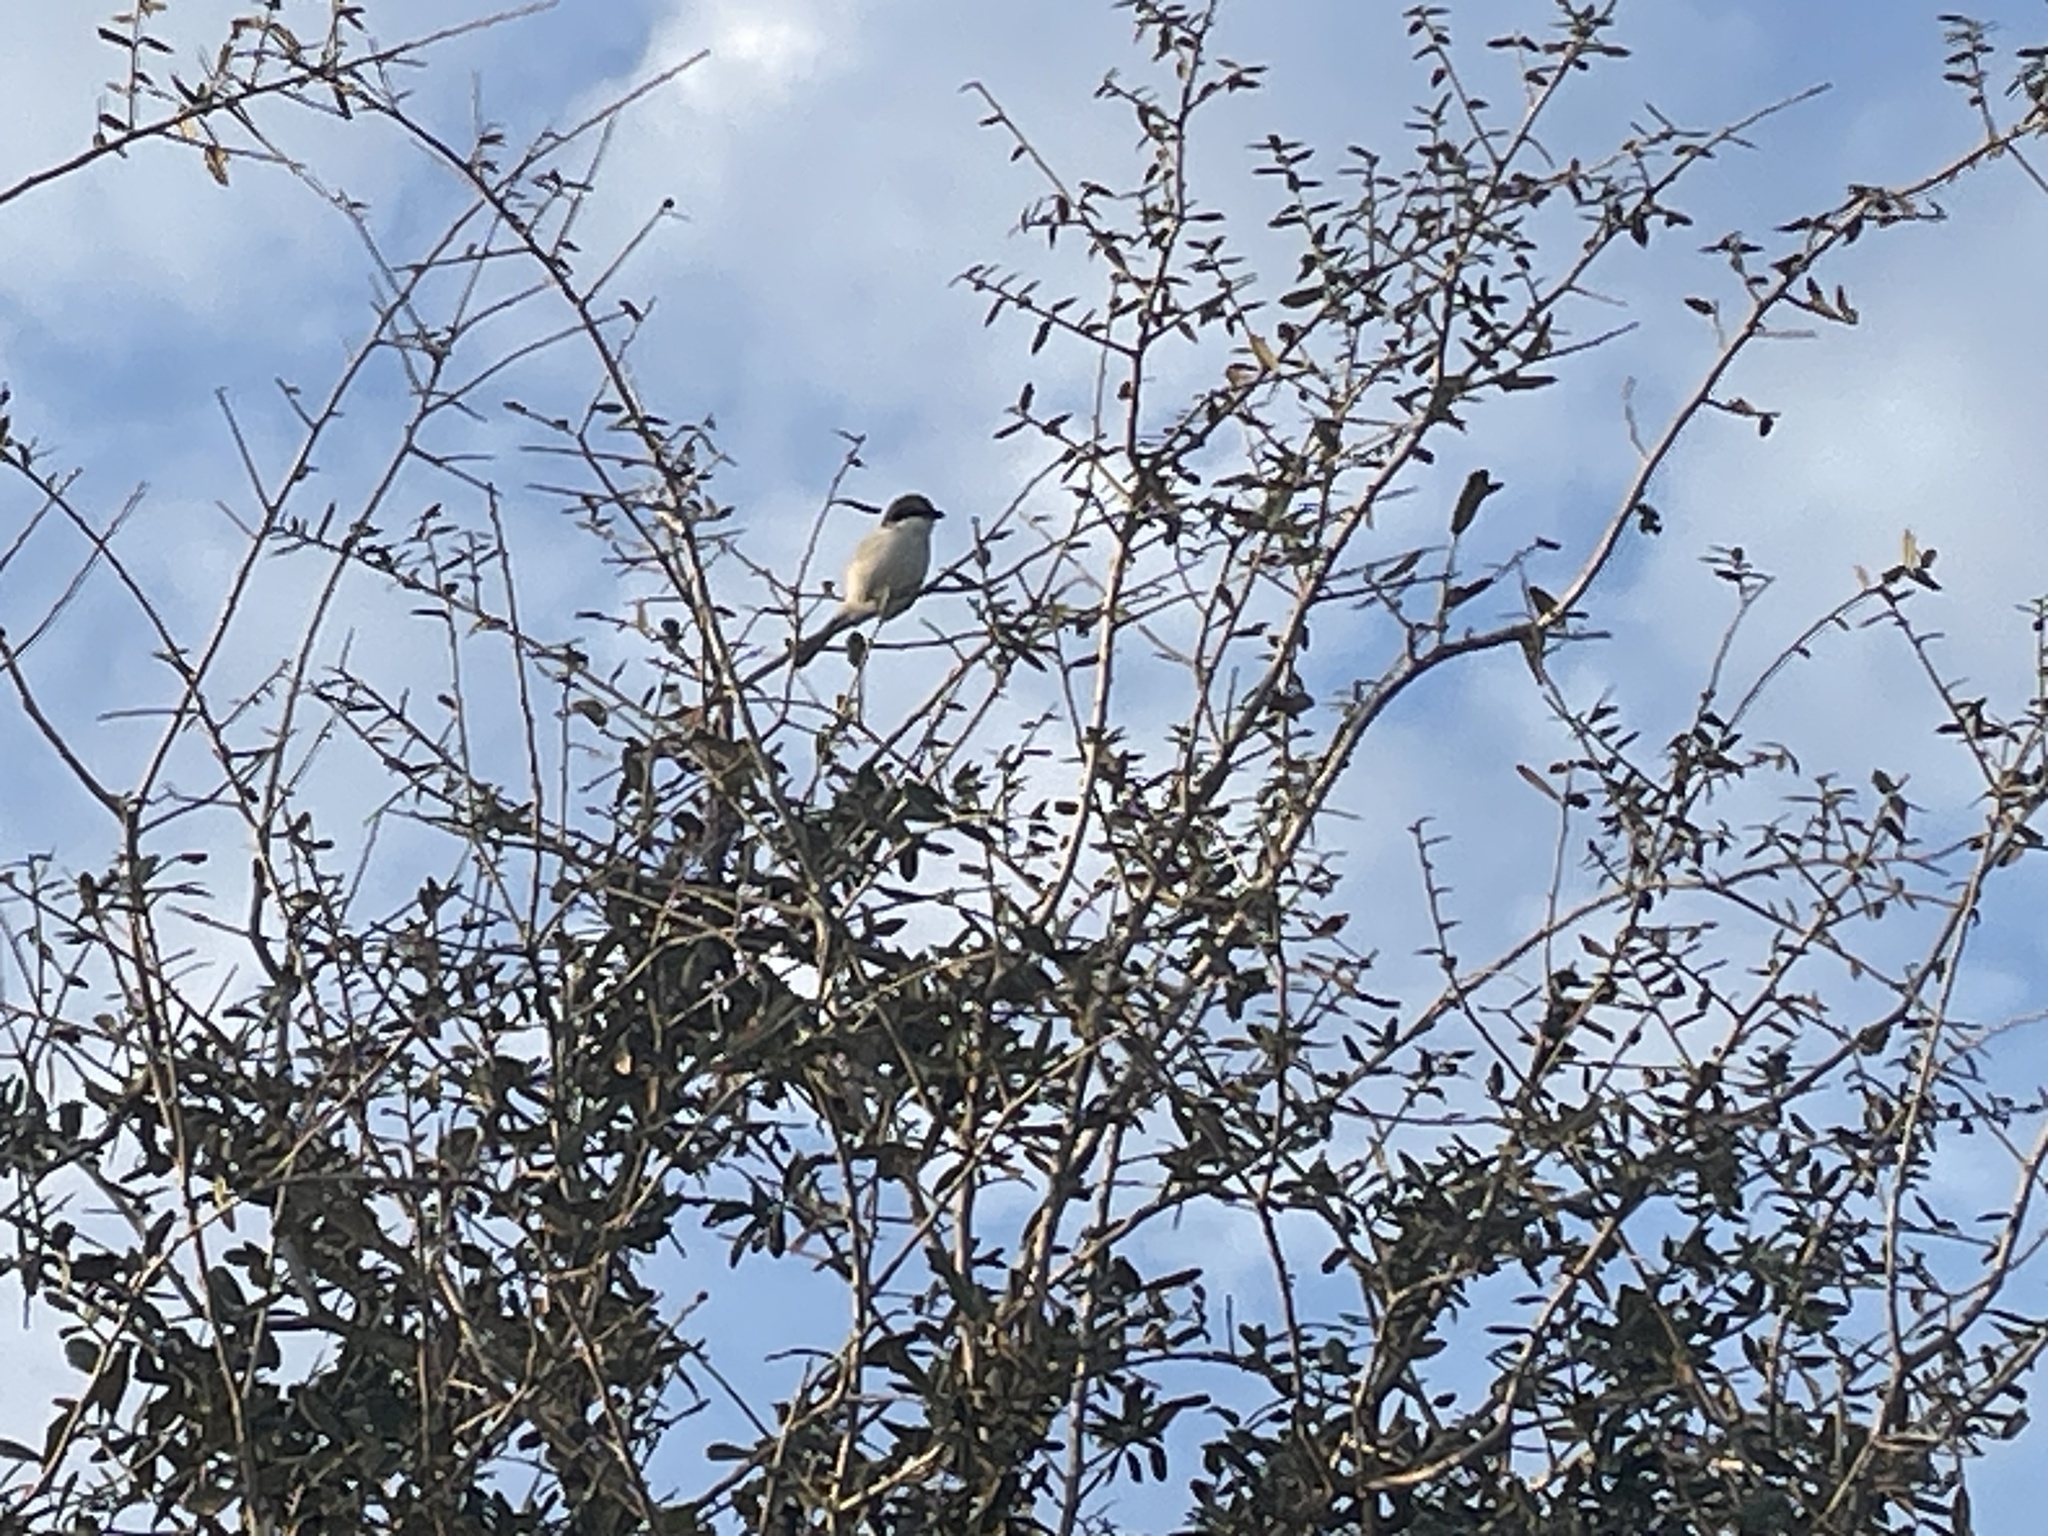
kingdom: Animalia
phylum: Chordata
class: Aves
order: Passeriformes
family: Laniidae
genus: Lanius
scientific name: Lanius ludovicianus
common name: Loggerhead shrike
